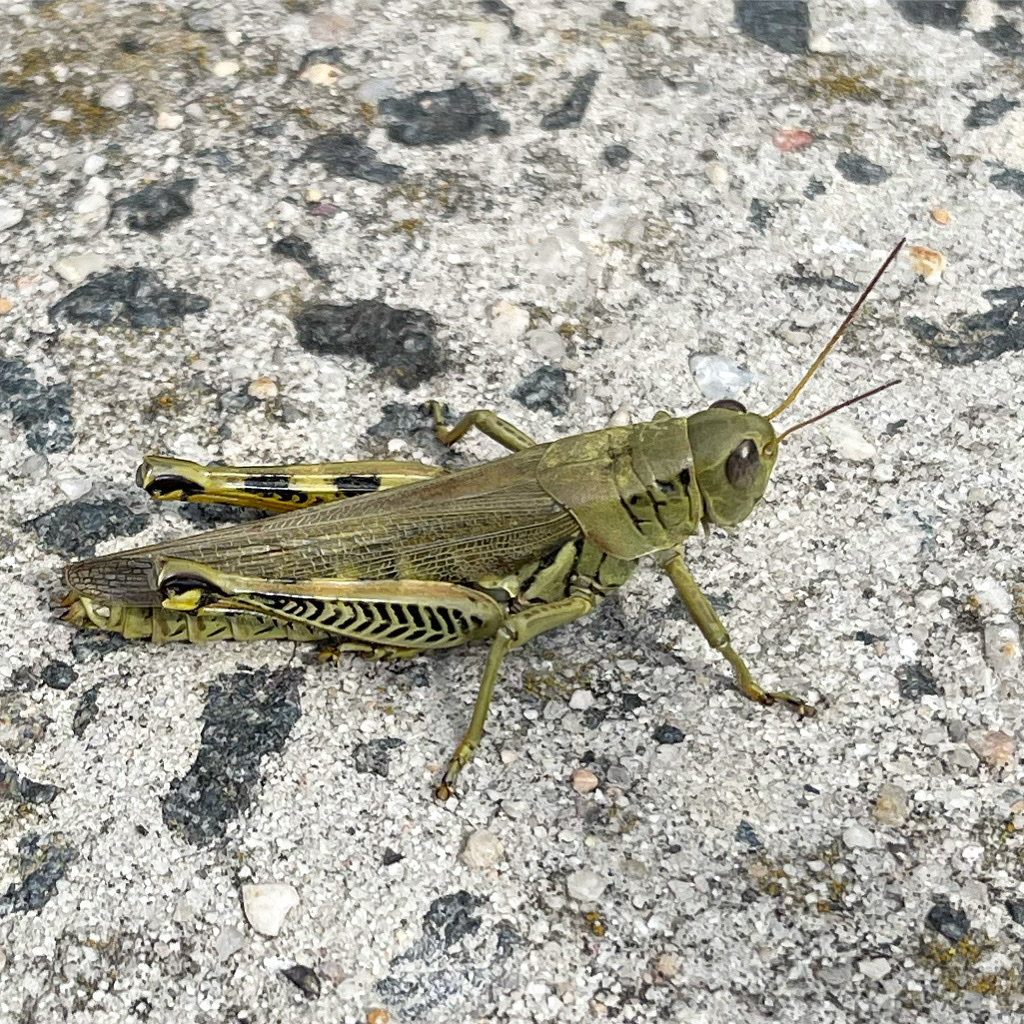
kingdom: Animalia
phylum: Arthropoda
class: Insecta
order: Orthoptera
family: Acrididae
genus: Melanoplus
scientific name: Melanoplus differentialis
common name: Differential grasshopper
